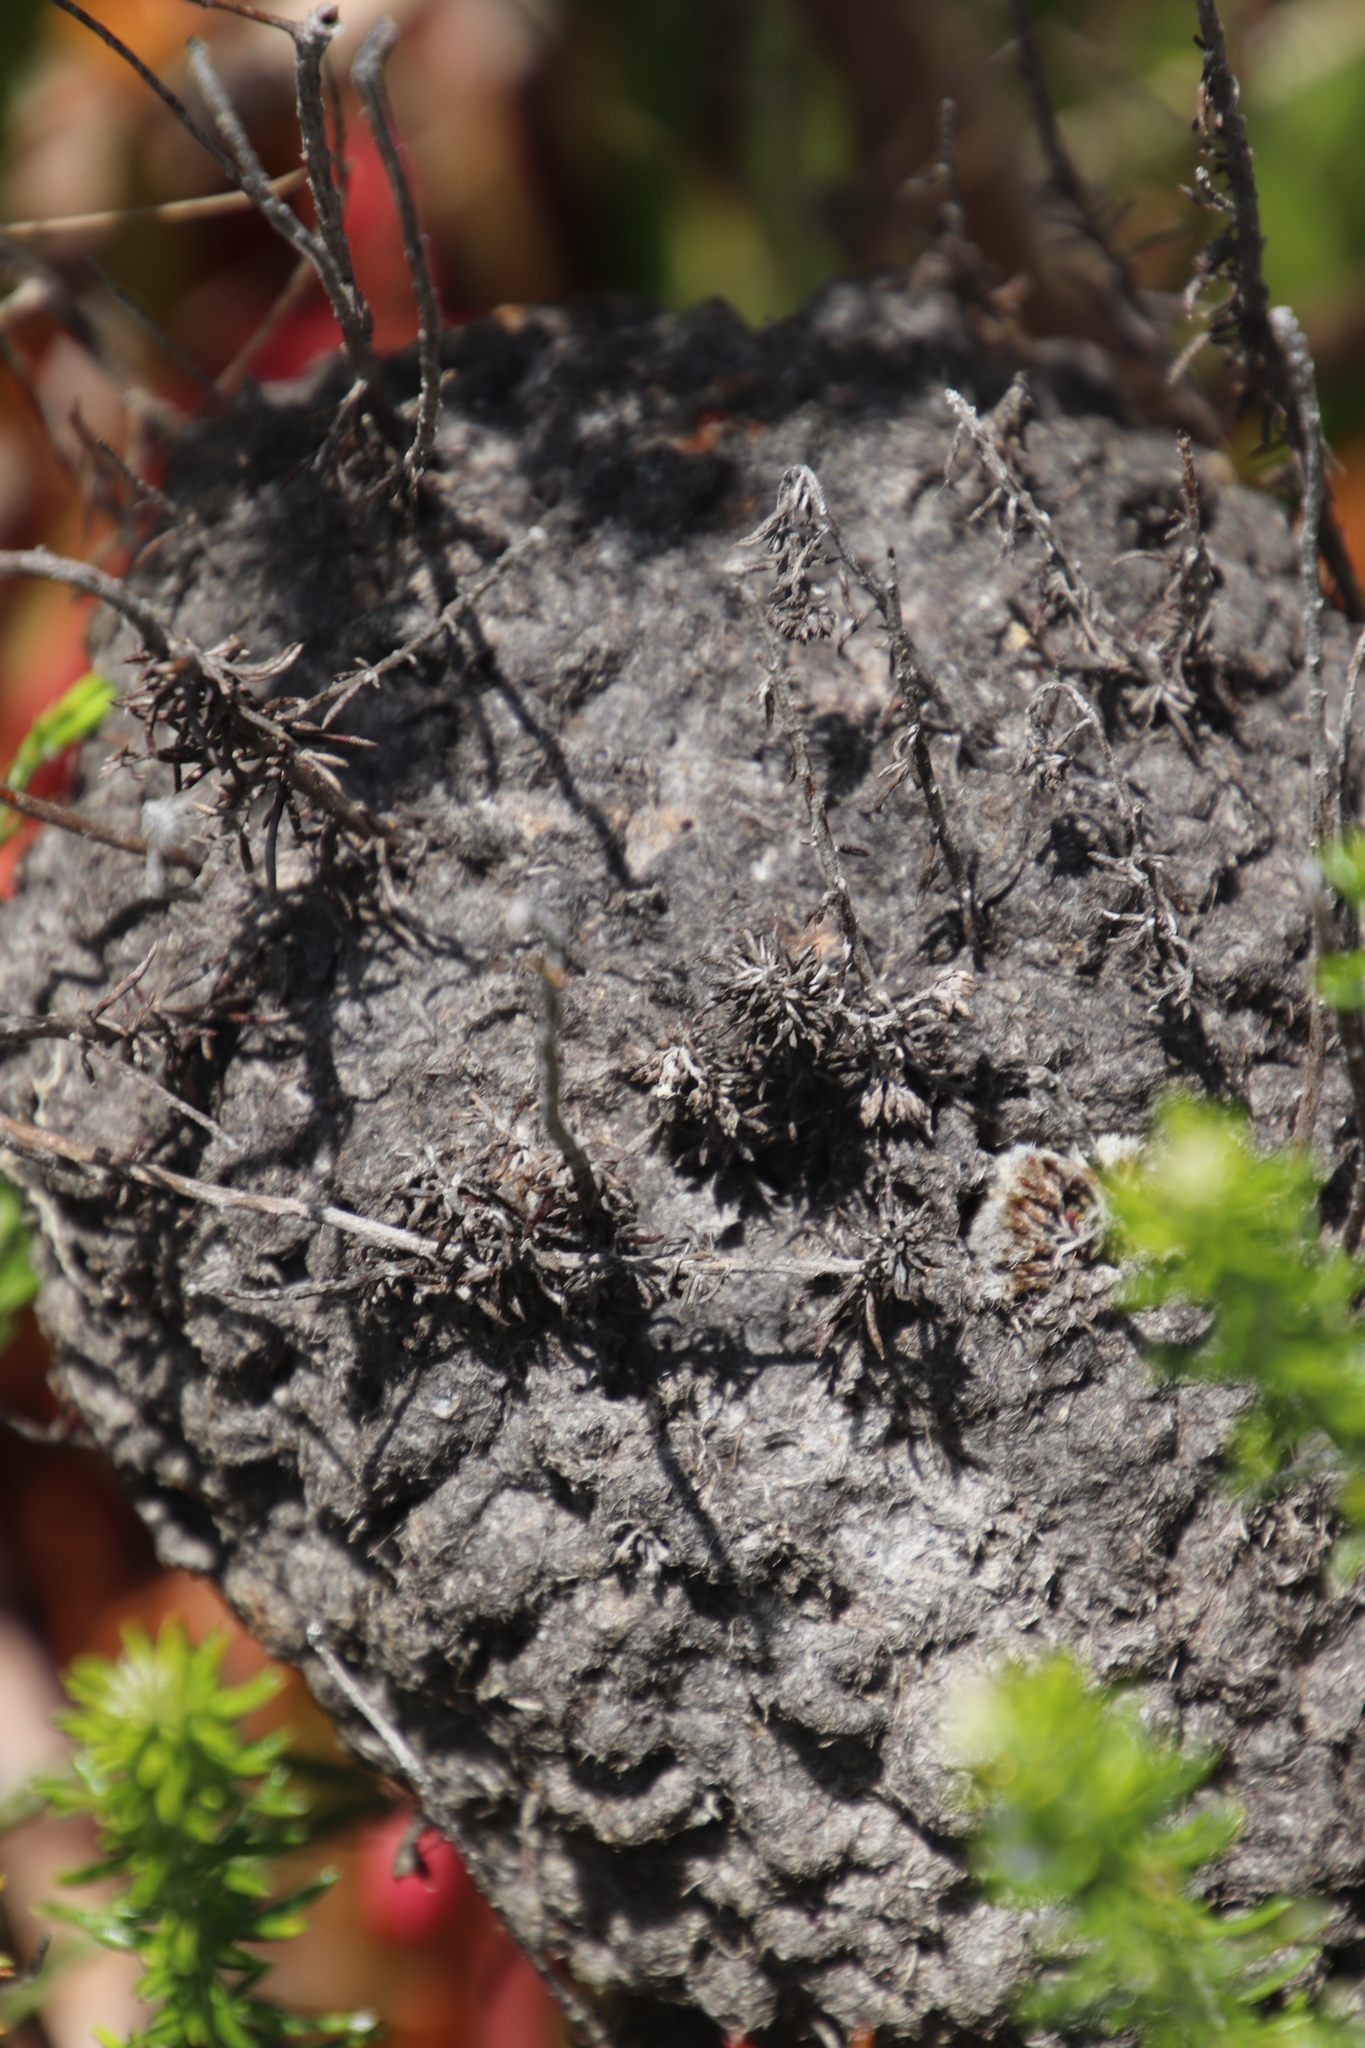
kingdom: Animalia
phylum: Arthropoda
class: Insecta
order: Hymenoptera
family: Formicidae
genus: Crematogaster
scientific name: Crematogaster peringueyi
